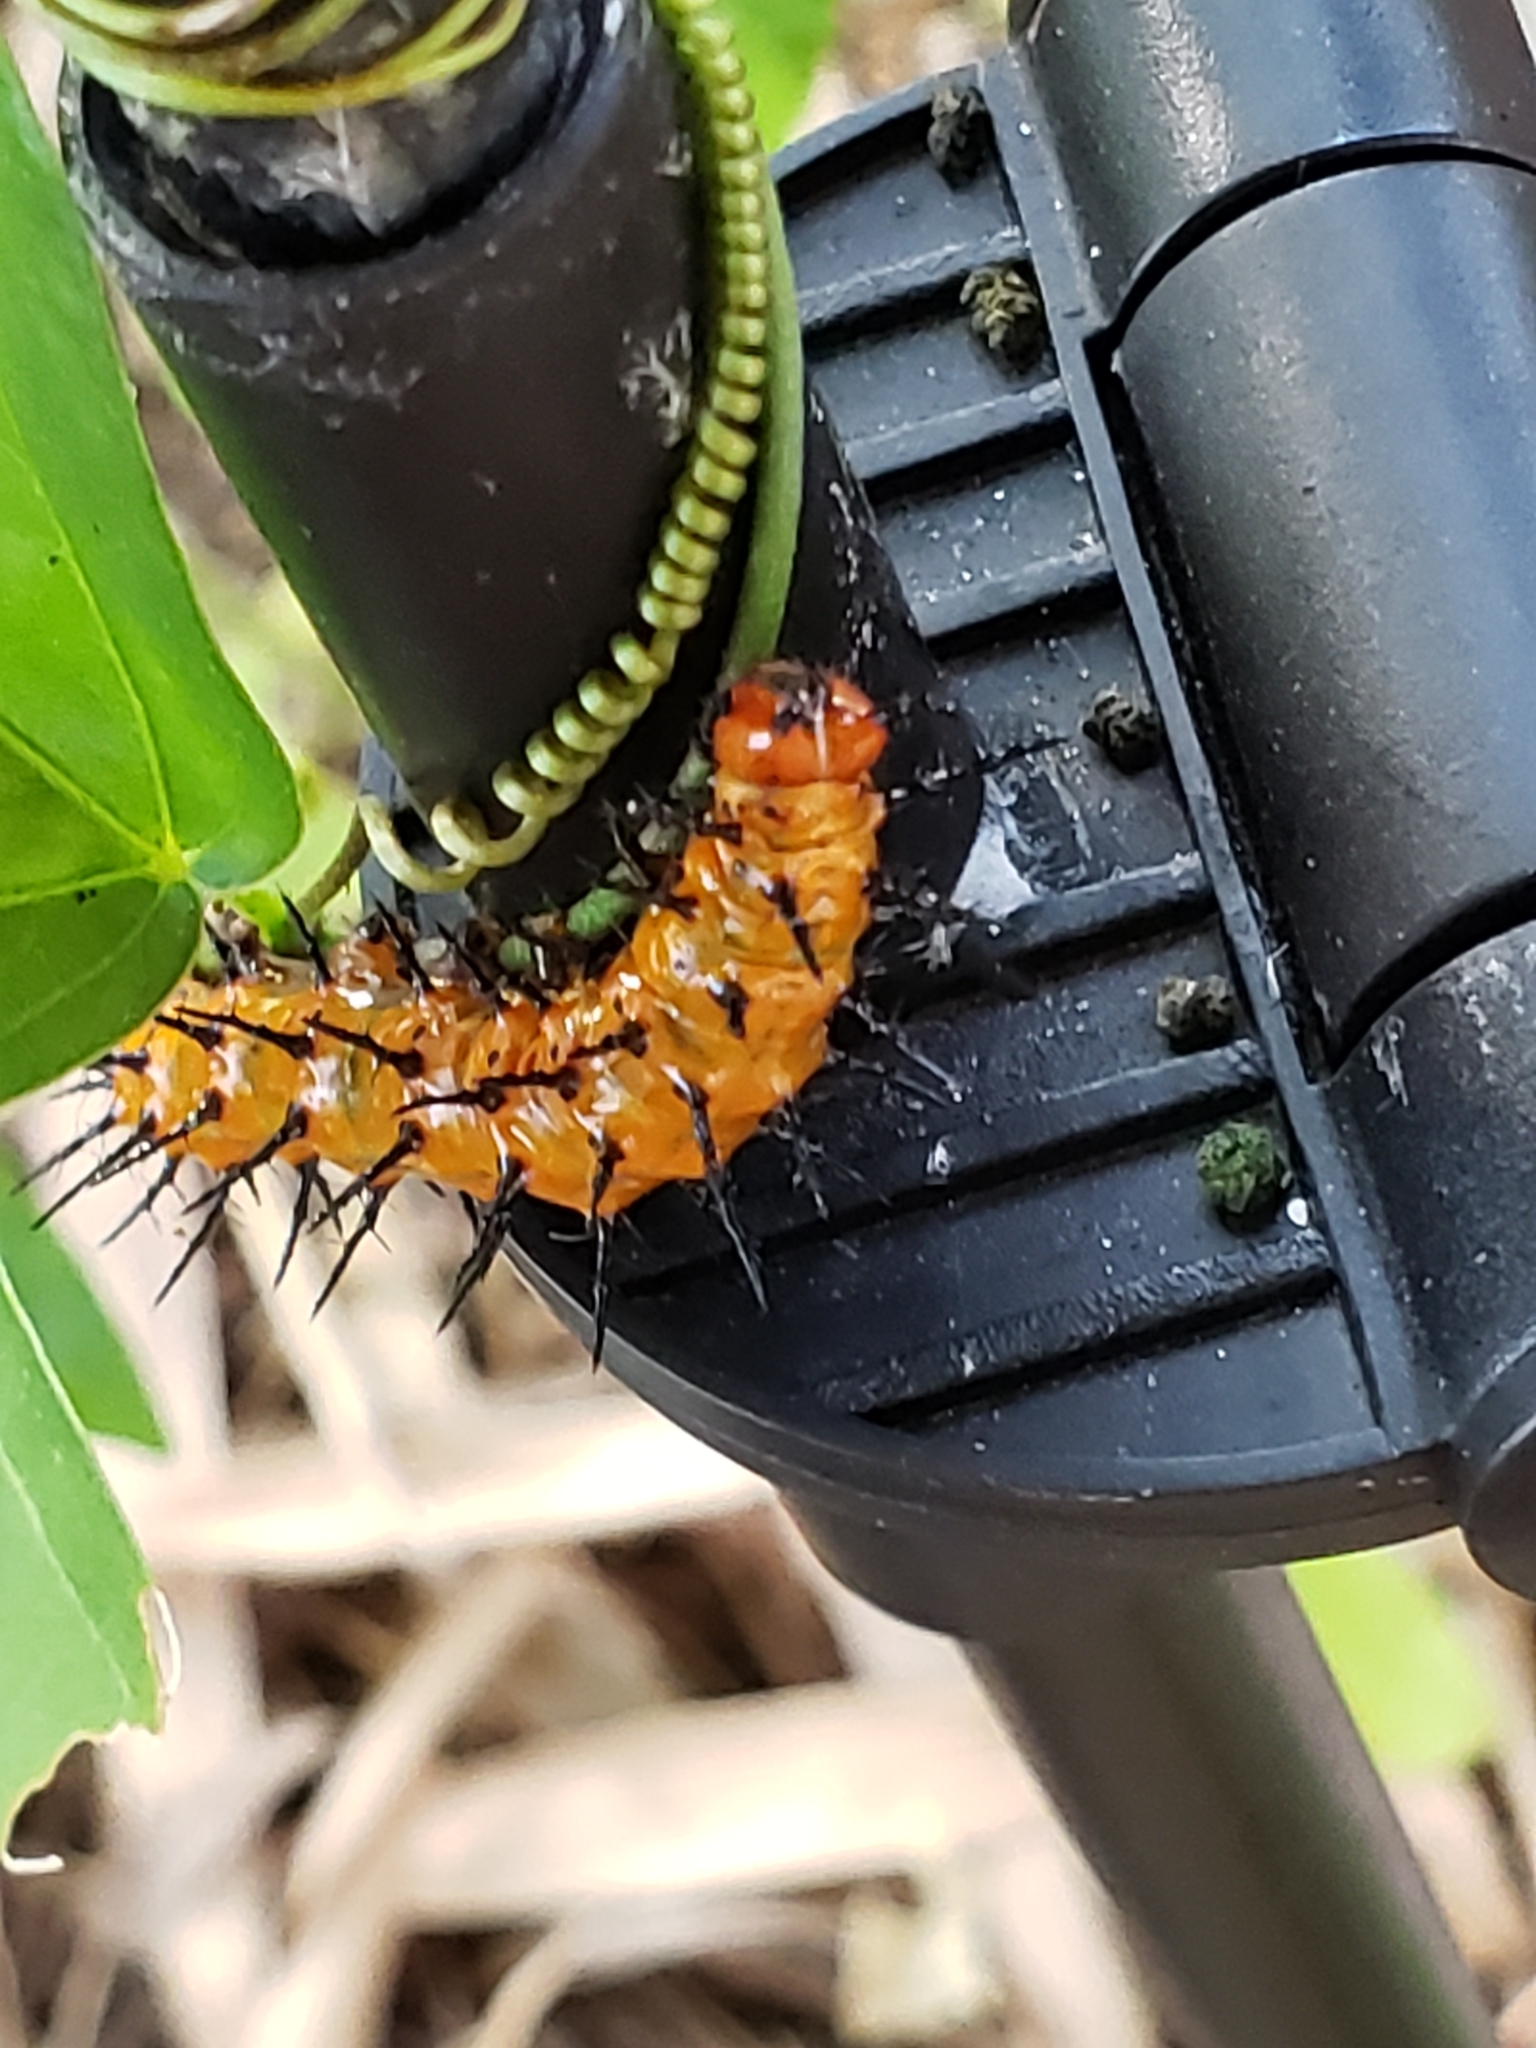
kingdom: Animalia
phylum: Arthropoda
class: Insecta
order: Lepidoptera
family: Nymphalidae
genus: Dione
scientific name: Dione vanillae
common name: Gulf fritillary
